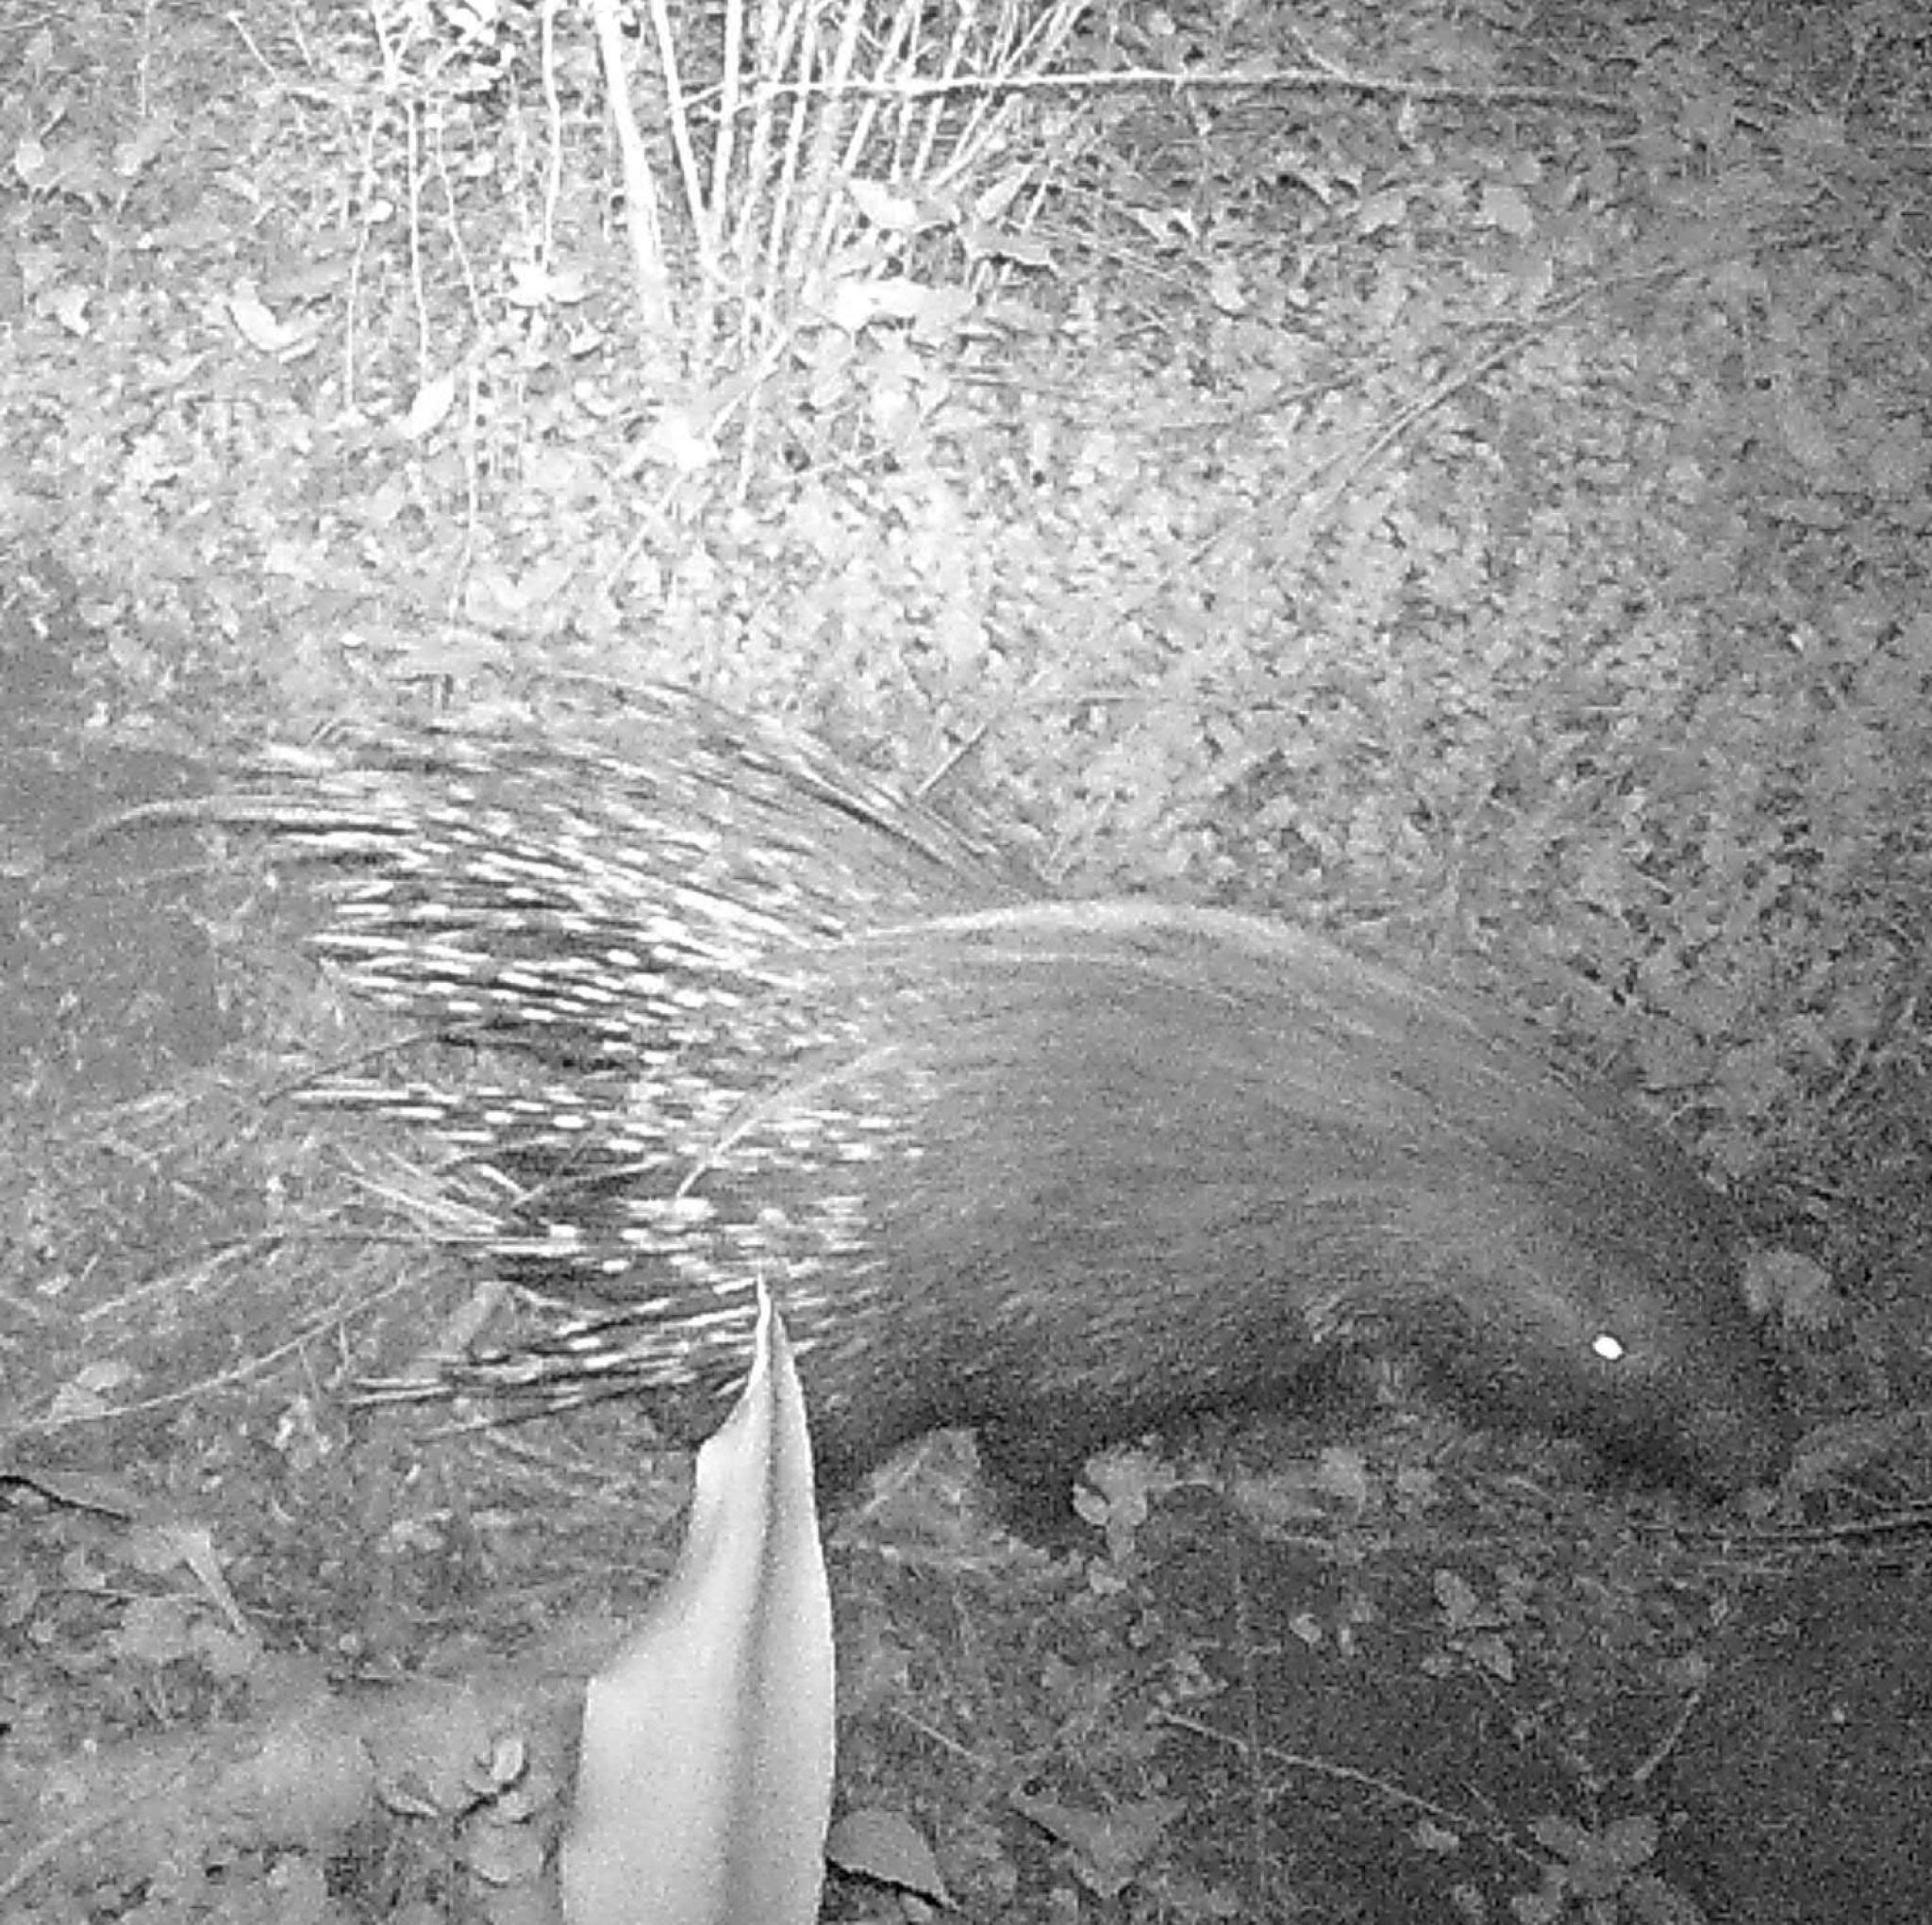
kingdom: Animalia
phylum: Chordata
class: Mammalia
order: Rodentia
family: Hystricidae
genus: Hystrix
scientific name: Hystrix africaeaustralis
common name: Cape porcupine
